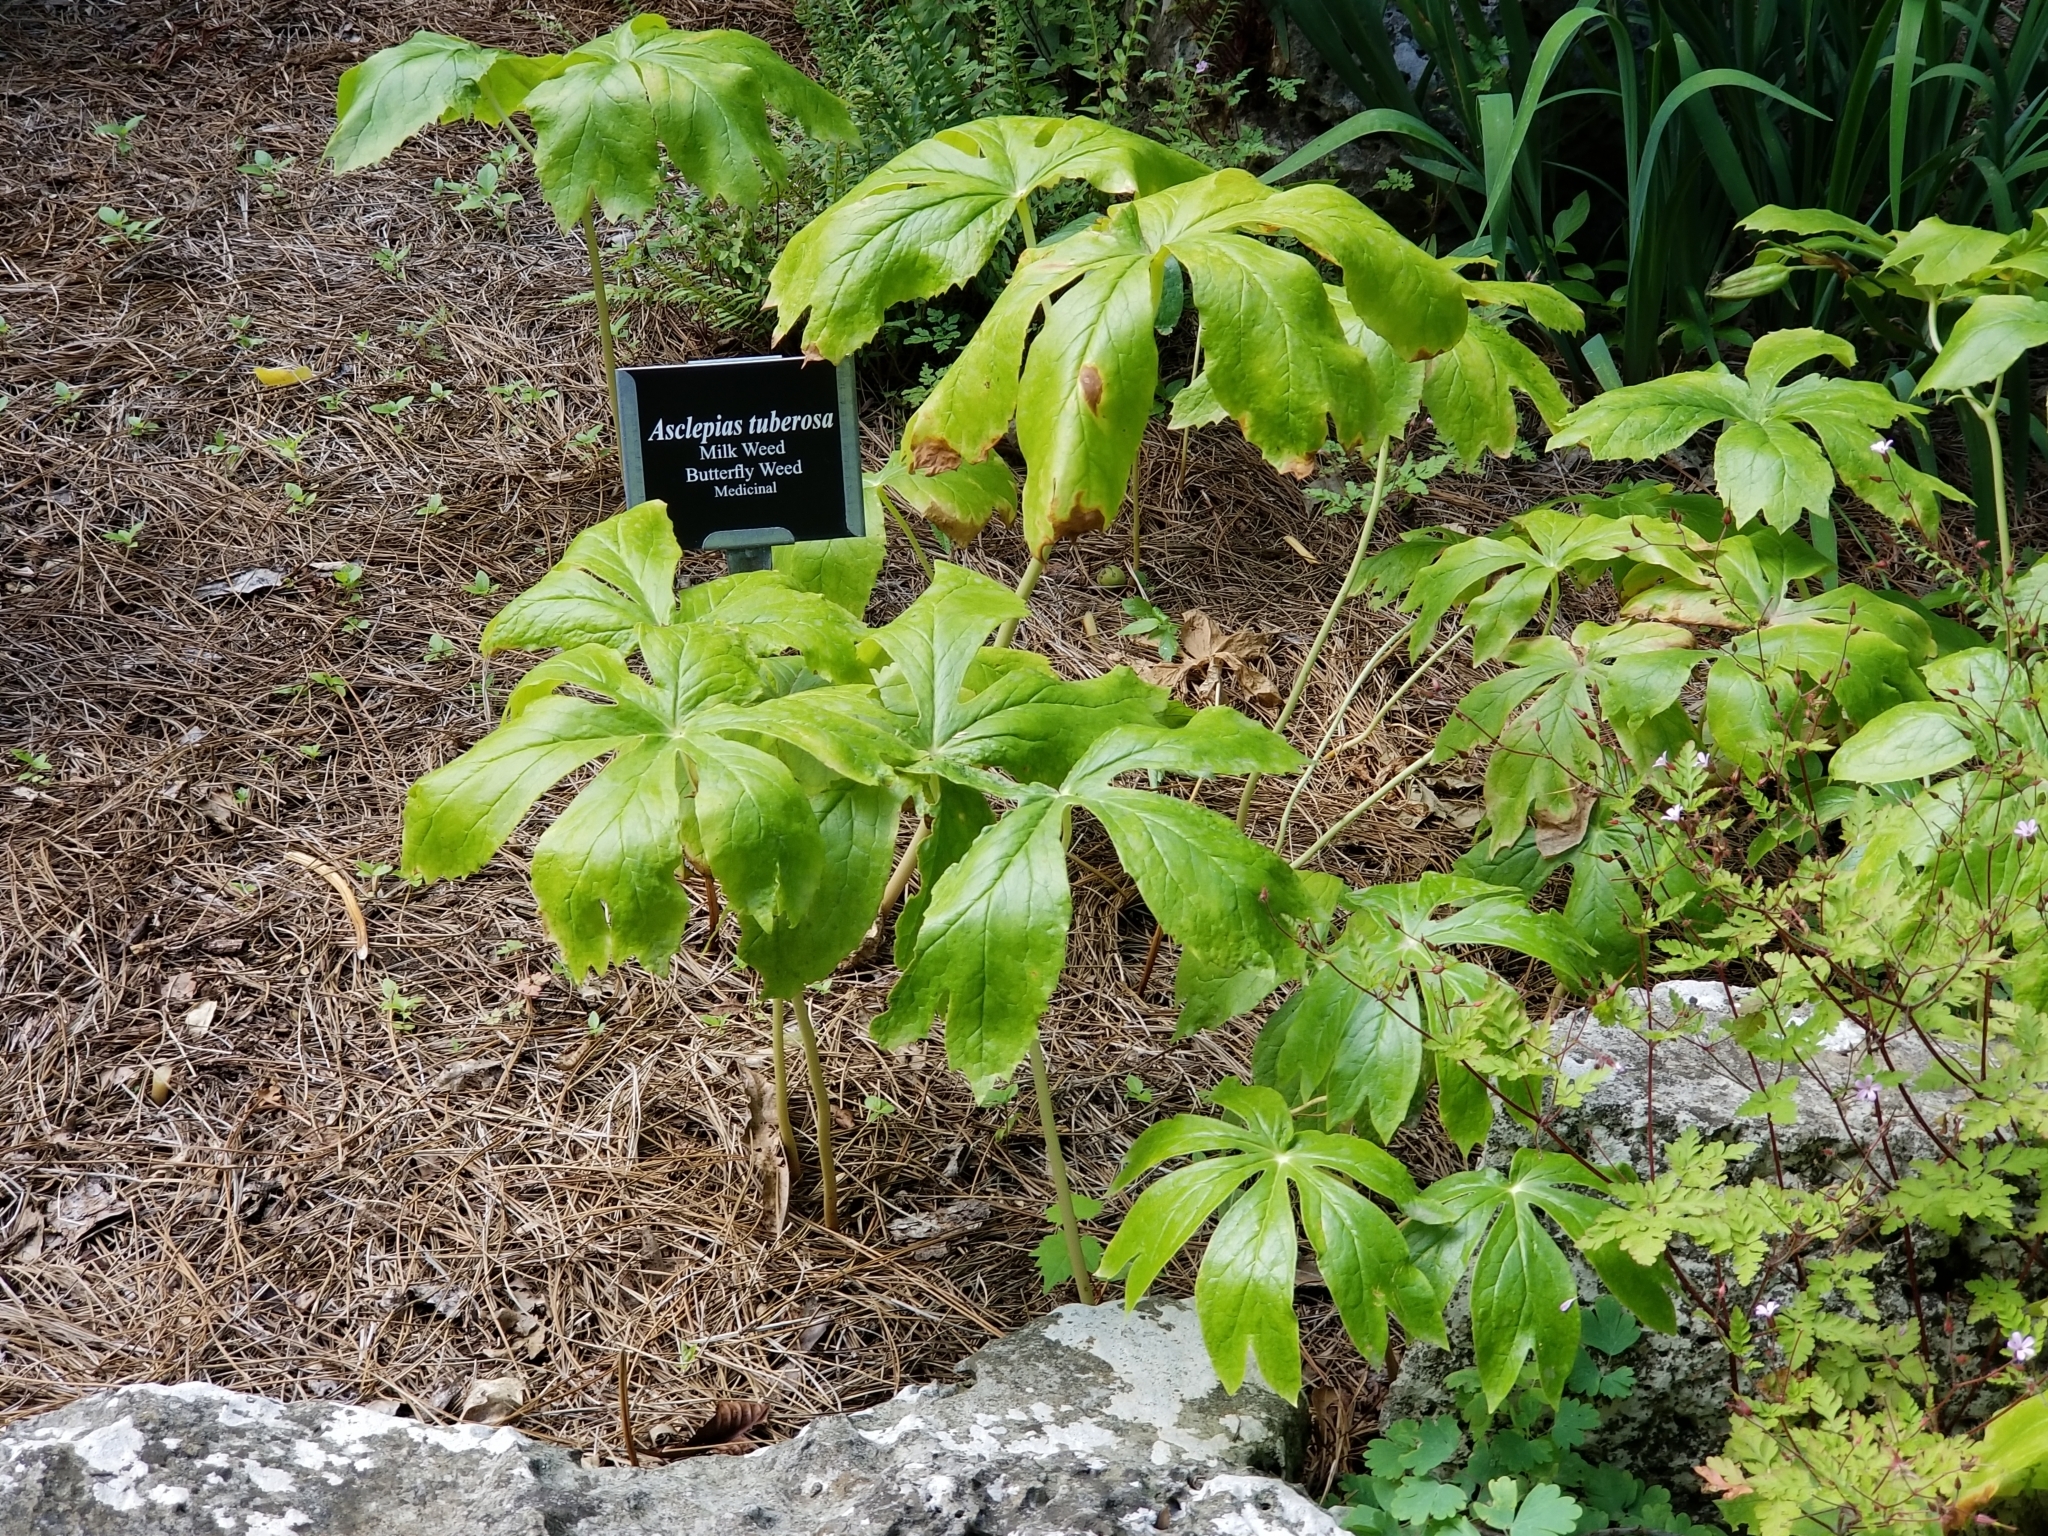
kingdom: Plantae
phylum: Tracheophyta
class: Magnoliopsida
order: Ranunculales
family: Berberidaceae
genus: Podophyllum
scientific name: Podophyllum peltatum
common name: Wild mandrake
